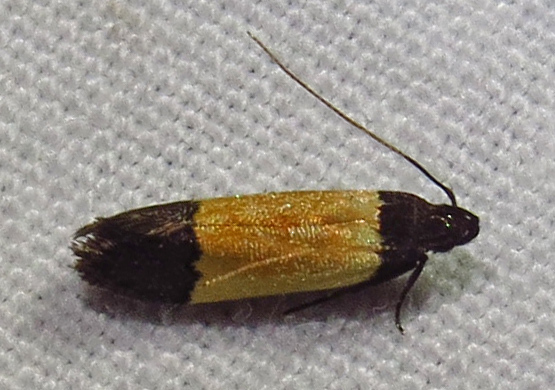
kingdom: Animalia
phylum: Arthropoda
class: Insecta
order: Lepidoptera
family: Gelechiidae
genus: Anacampsis
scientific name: Anacampsis coverdalella
